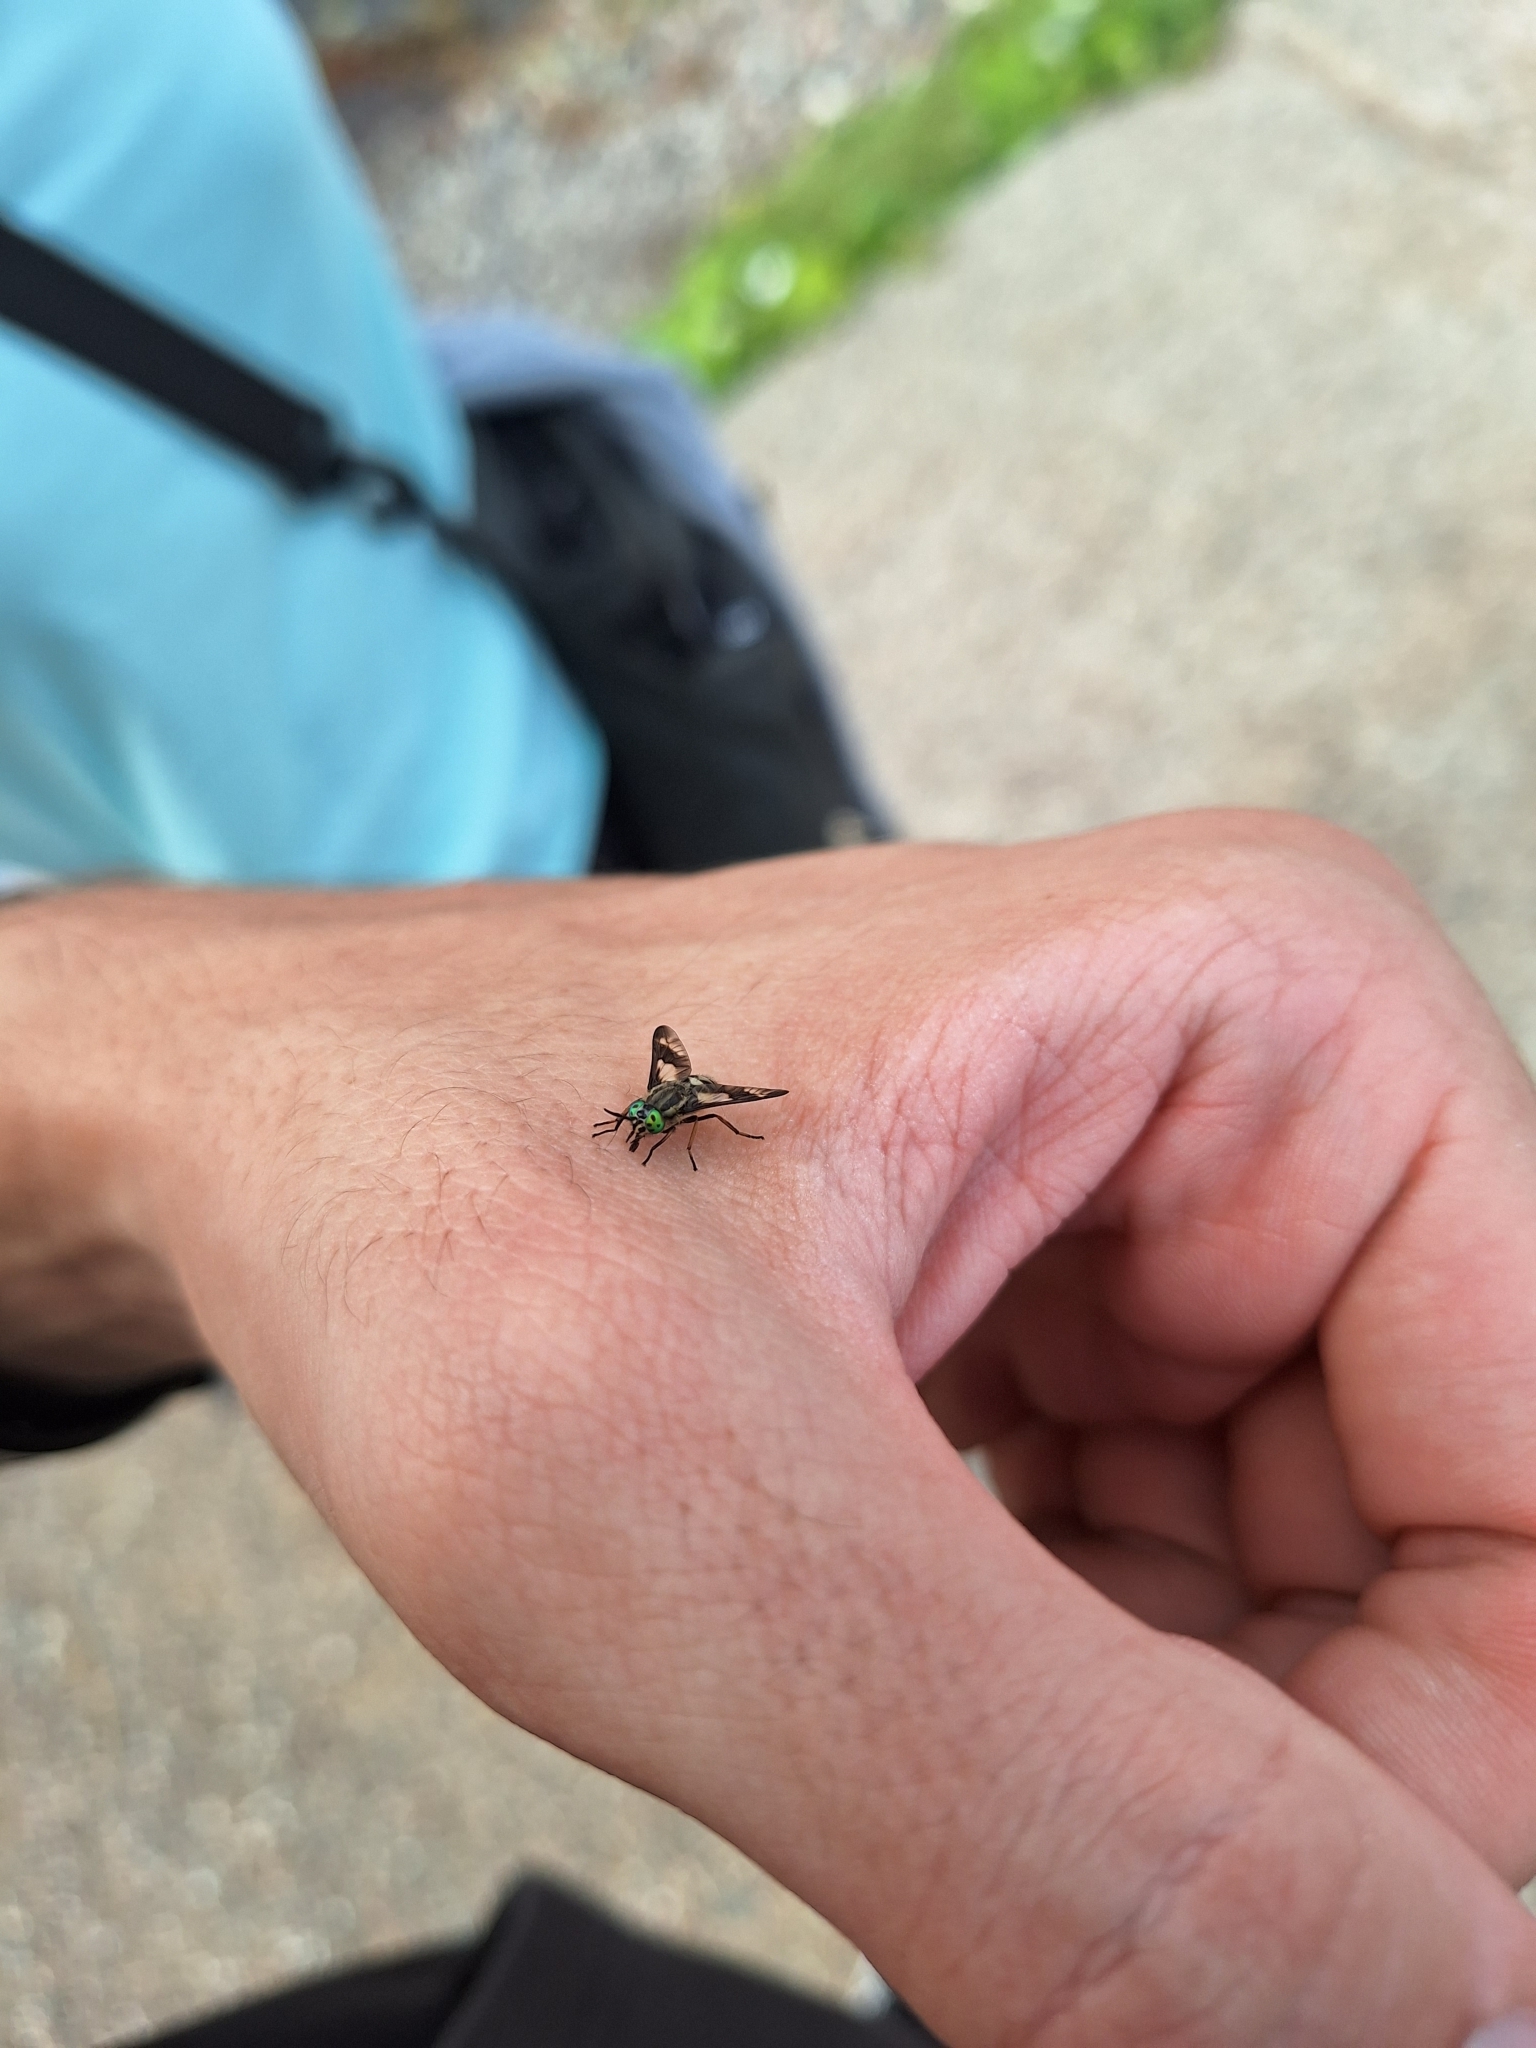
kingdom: Animalia
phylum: Arthropoda
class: Insecta
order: Diptera
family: Tabanidae
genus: Chrysops
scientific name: Chrysops relictus
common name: Twin-lobed deerfly
